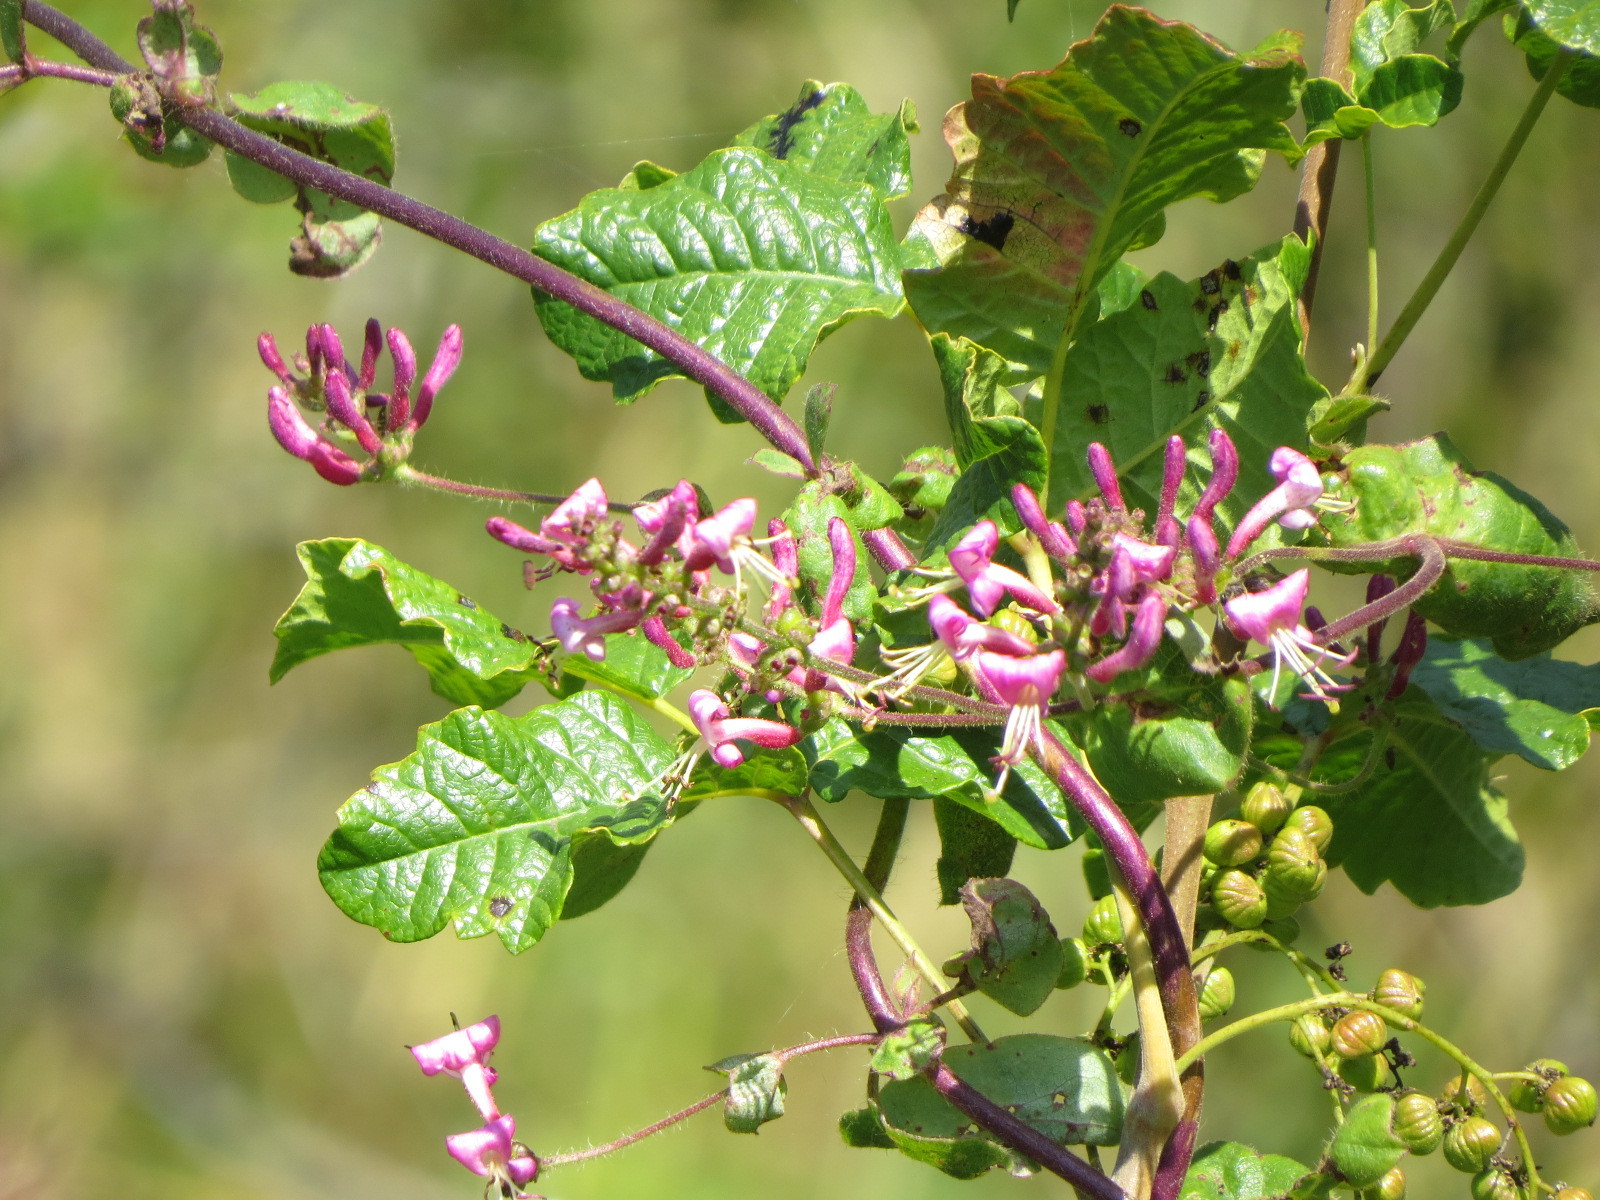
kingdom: Plantae
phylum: Tracheophyta
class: Magnoliopsida
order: Dipsacales
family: Caprifoliaceae
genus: Lonicera
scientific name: Lonicera hispidula
